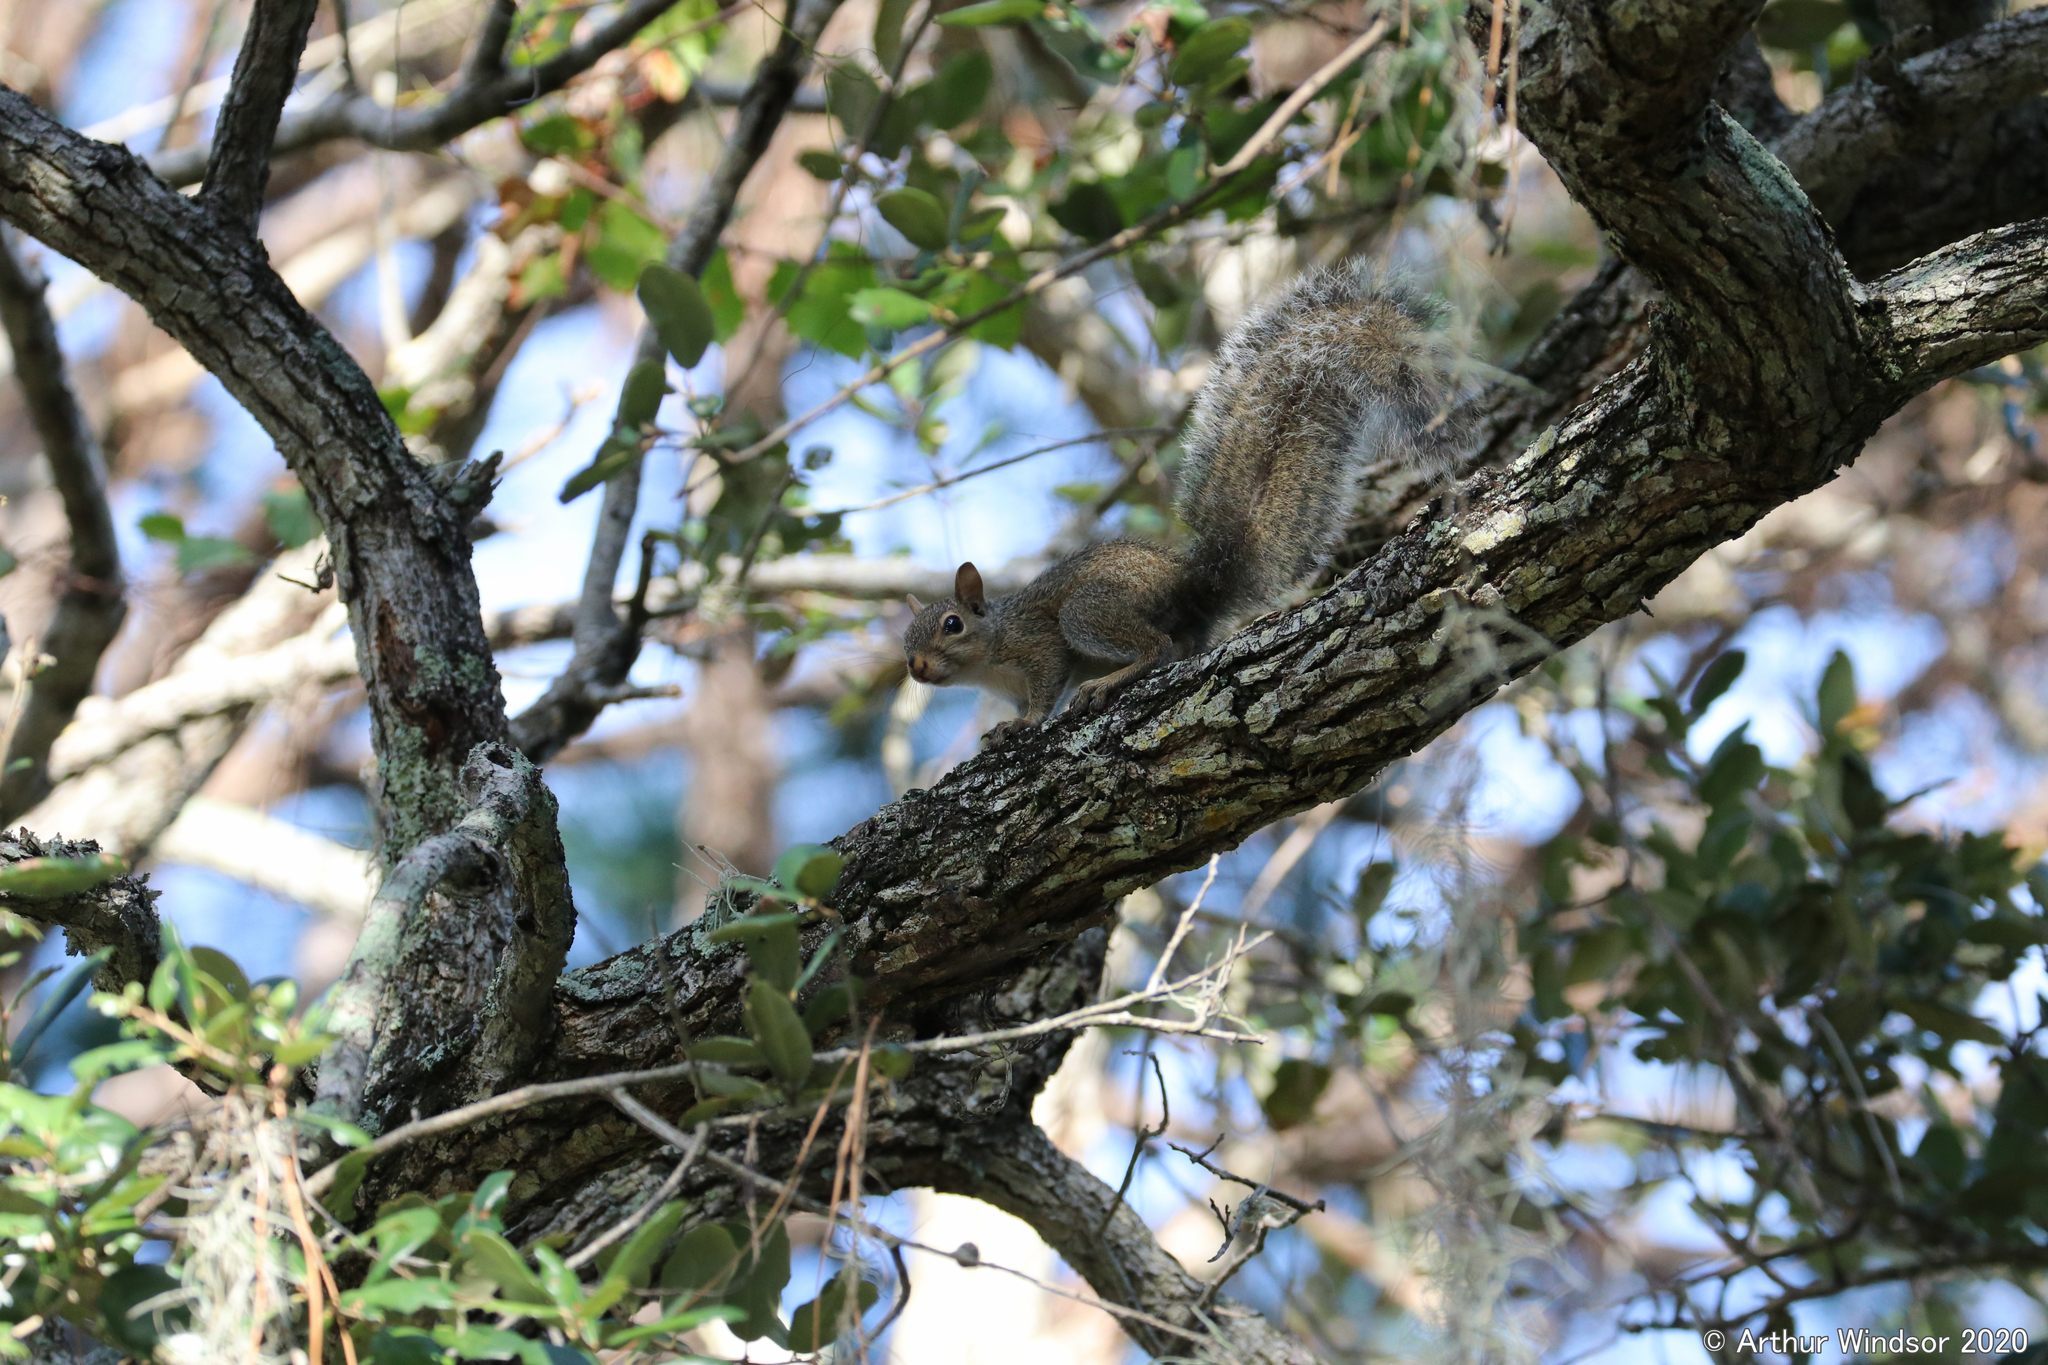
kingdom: Animalia
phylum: Chordata
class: Mammalia
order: Rodentia
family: Sciuridae
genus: Sciurus
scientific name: Sciurus carolinensis
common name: Eastern gray squirrel
